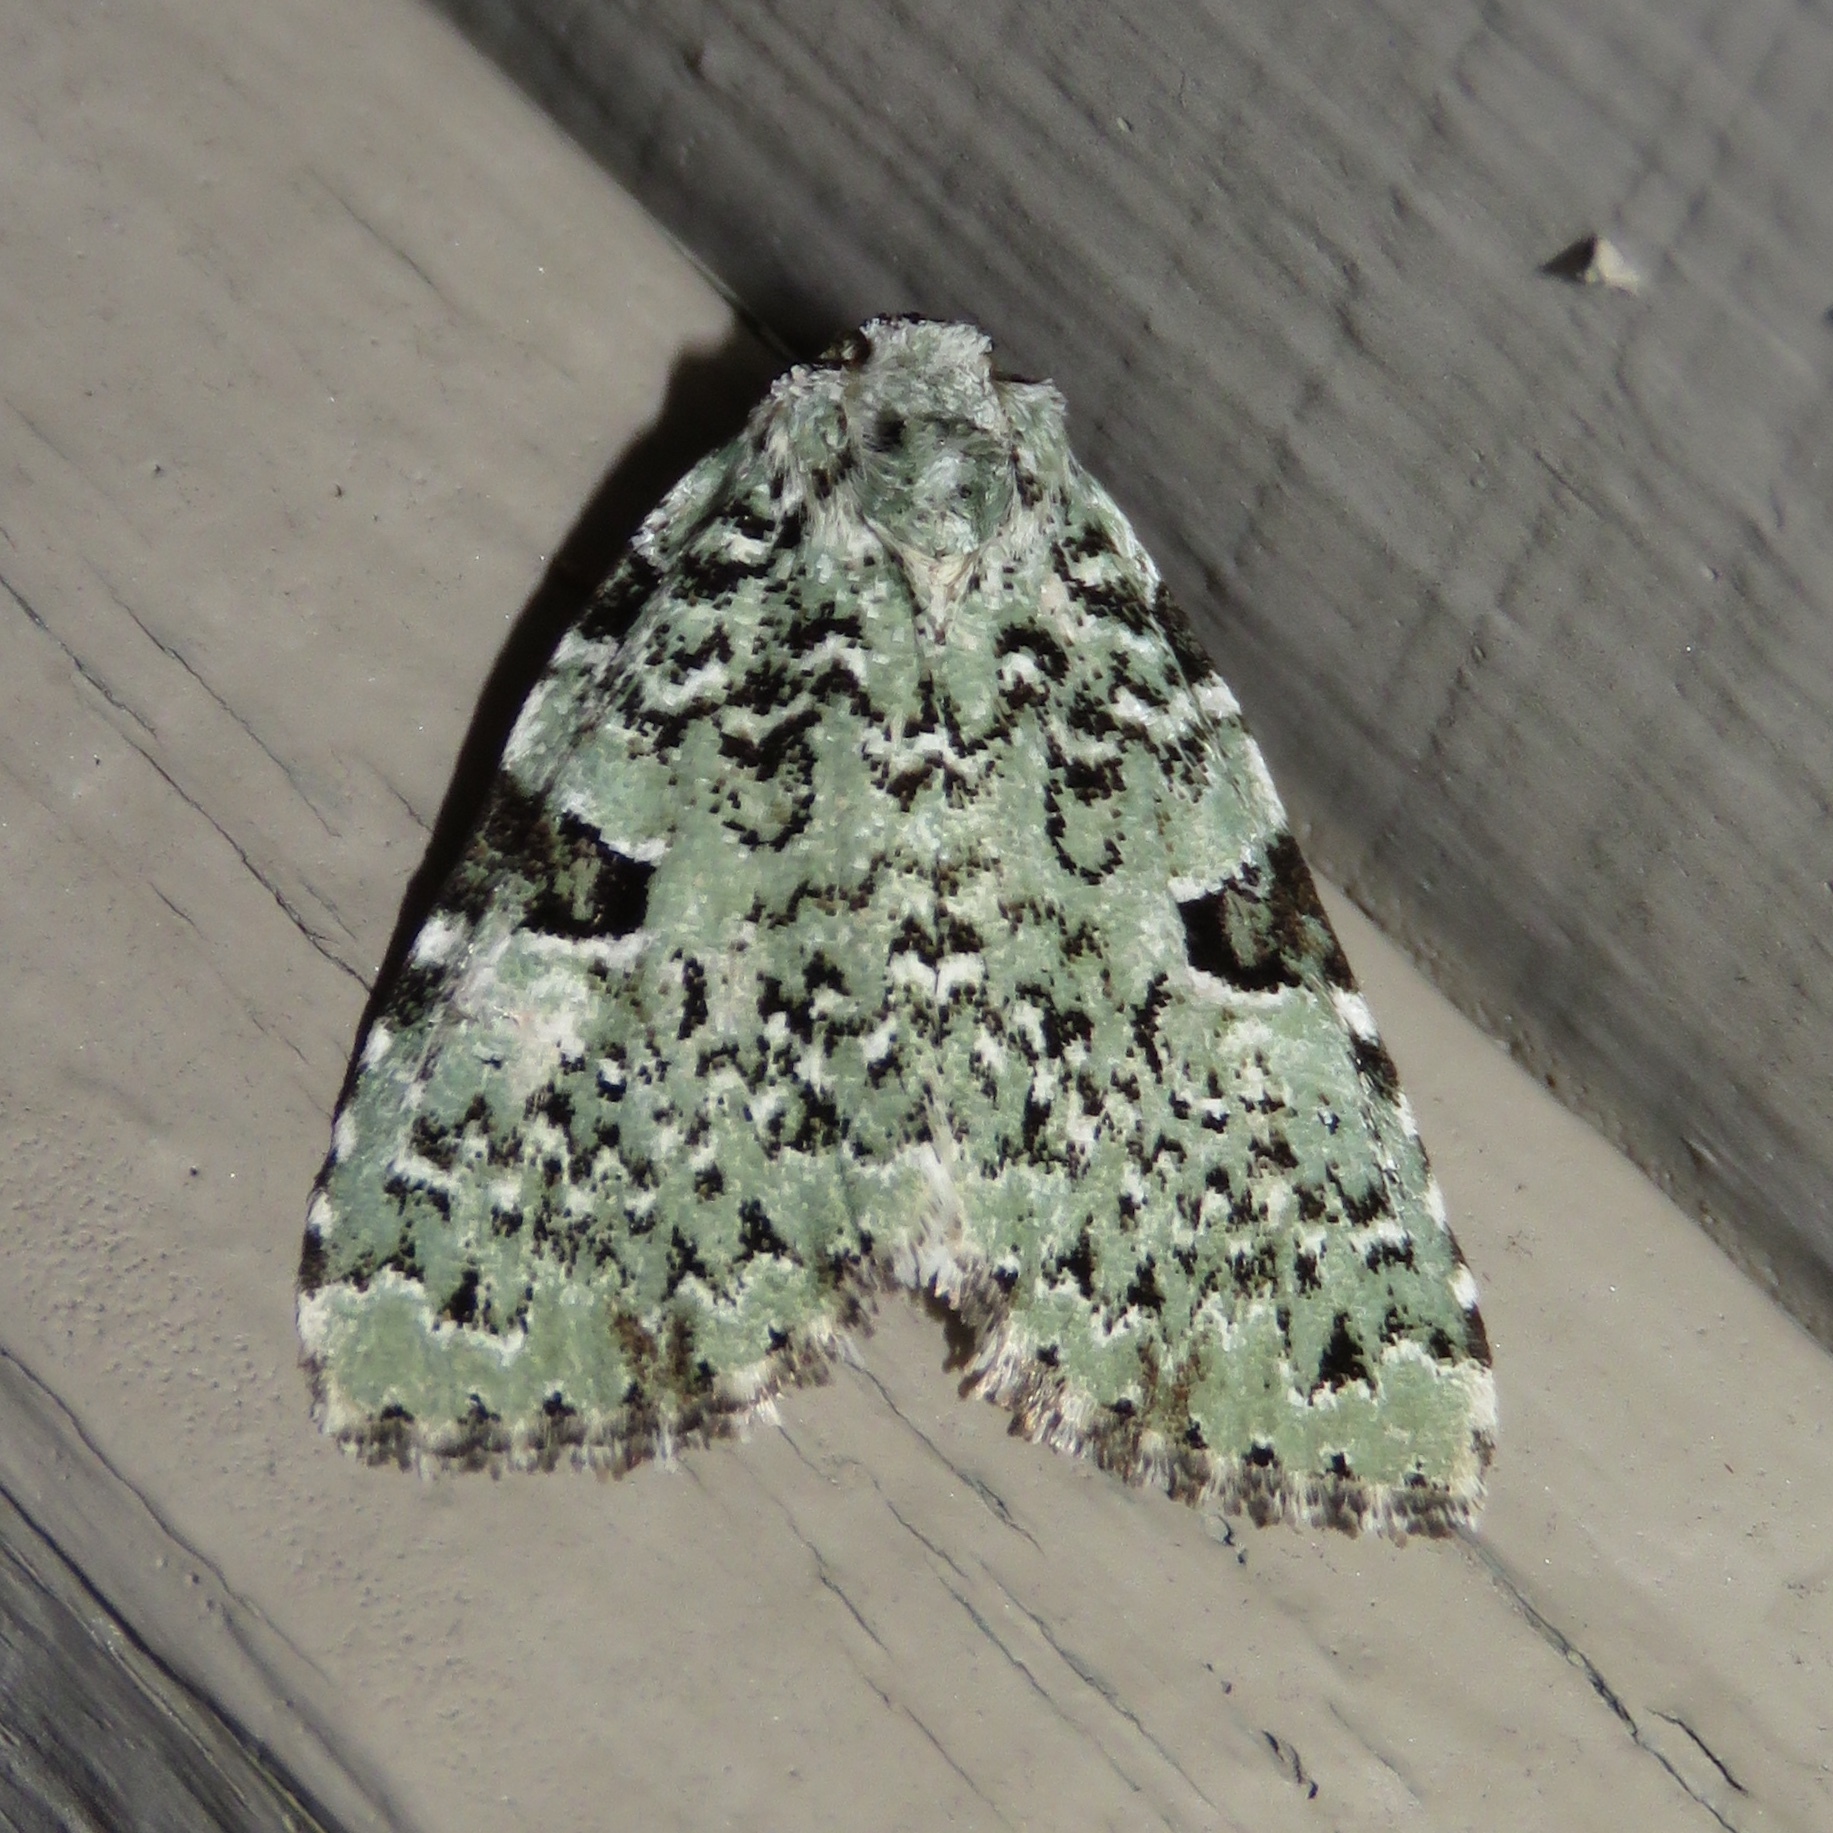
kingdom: Animalia
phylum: Arthropoda
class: Insecta
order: Lepidoptera
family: Noctuidae
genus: Leuconycta
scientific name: Leuconycta diphteroides
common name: Green leuconycta moth
